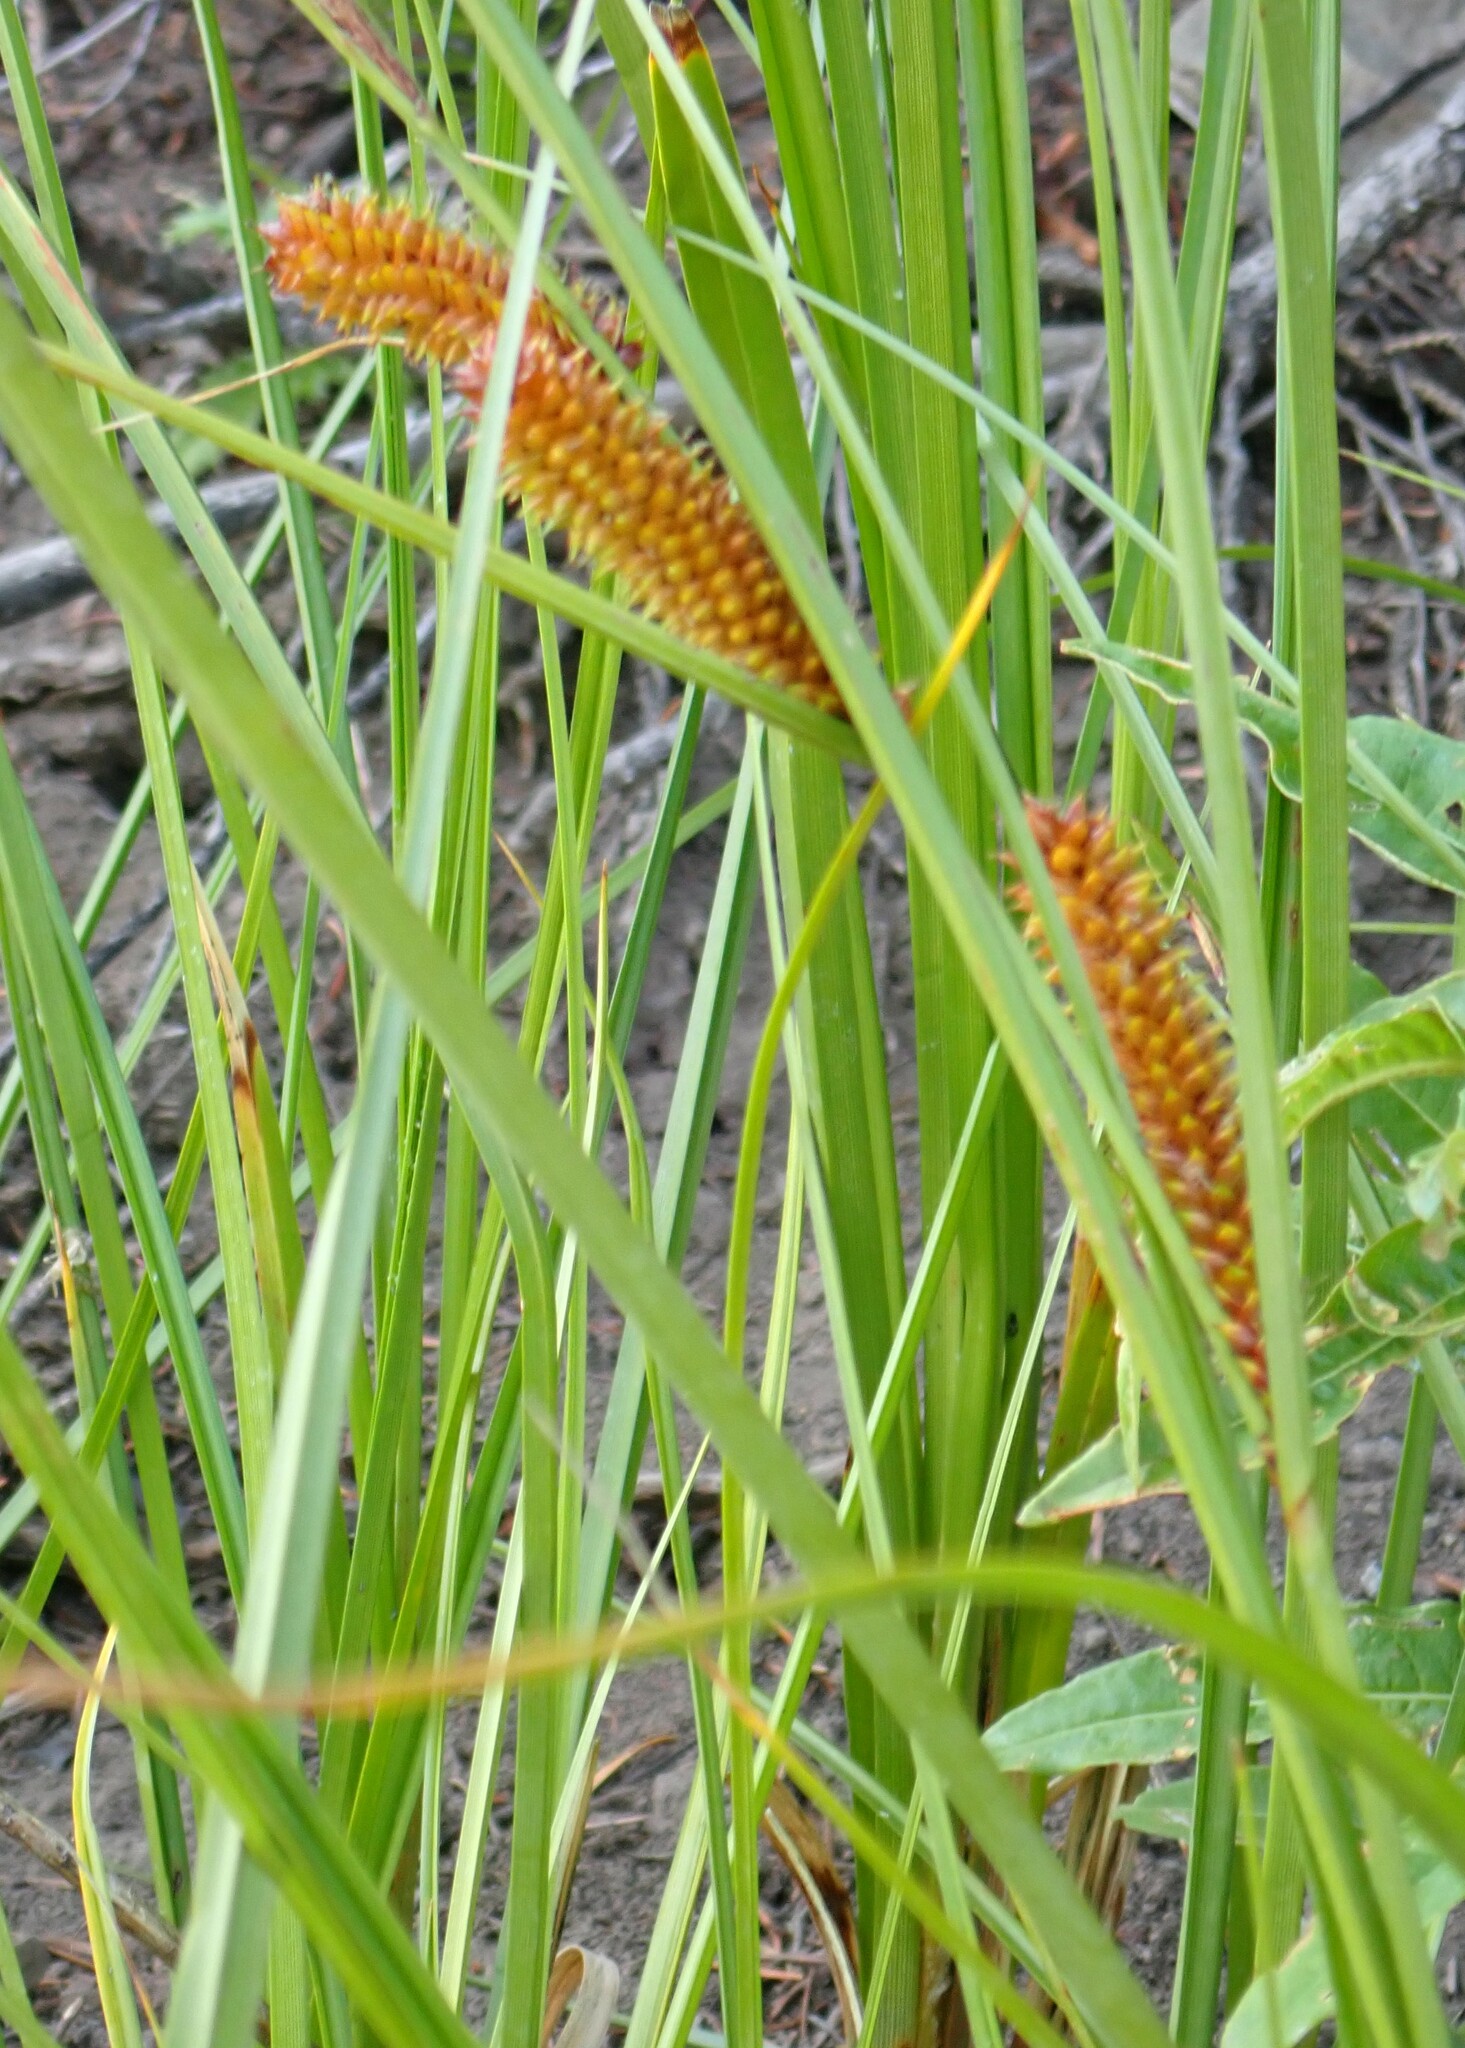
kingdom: Plantae
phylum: Tracheophyta
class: Liliopsida
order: Poales
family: Cyperaceae
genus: Carex
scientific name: Carex utriculata
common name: Beaked sedge
